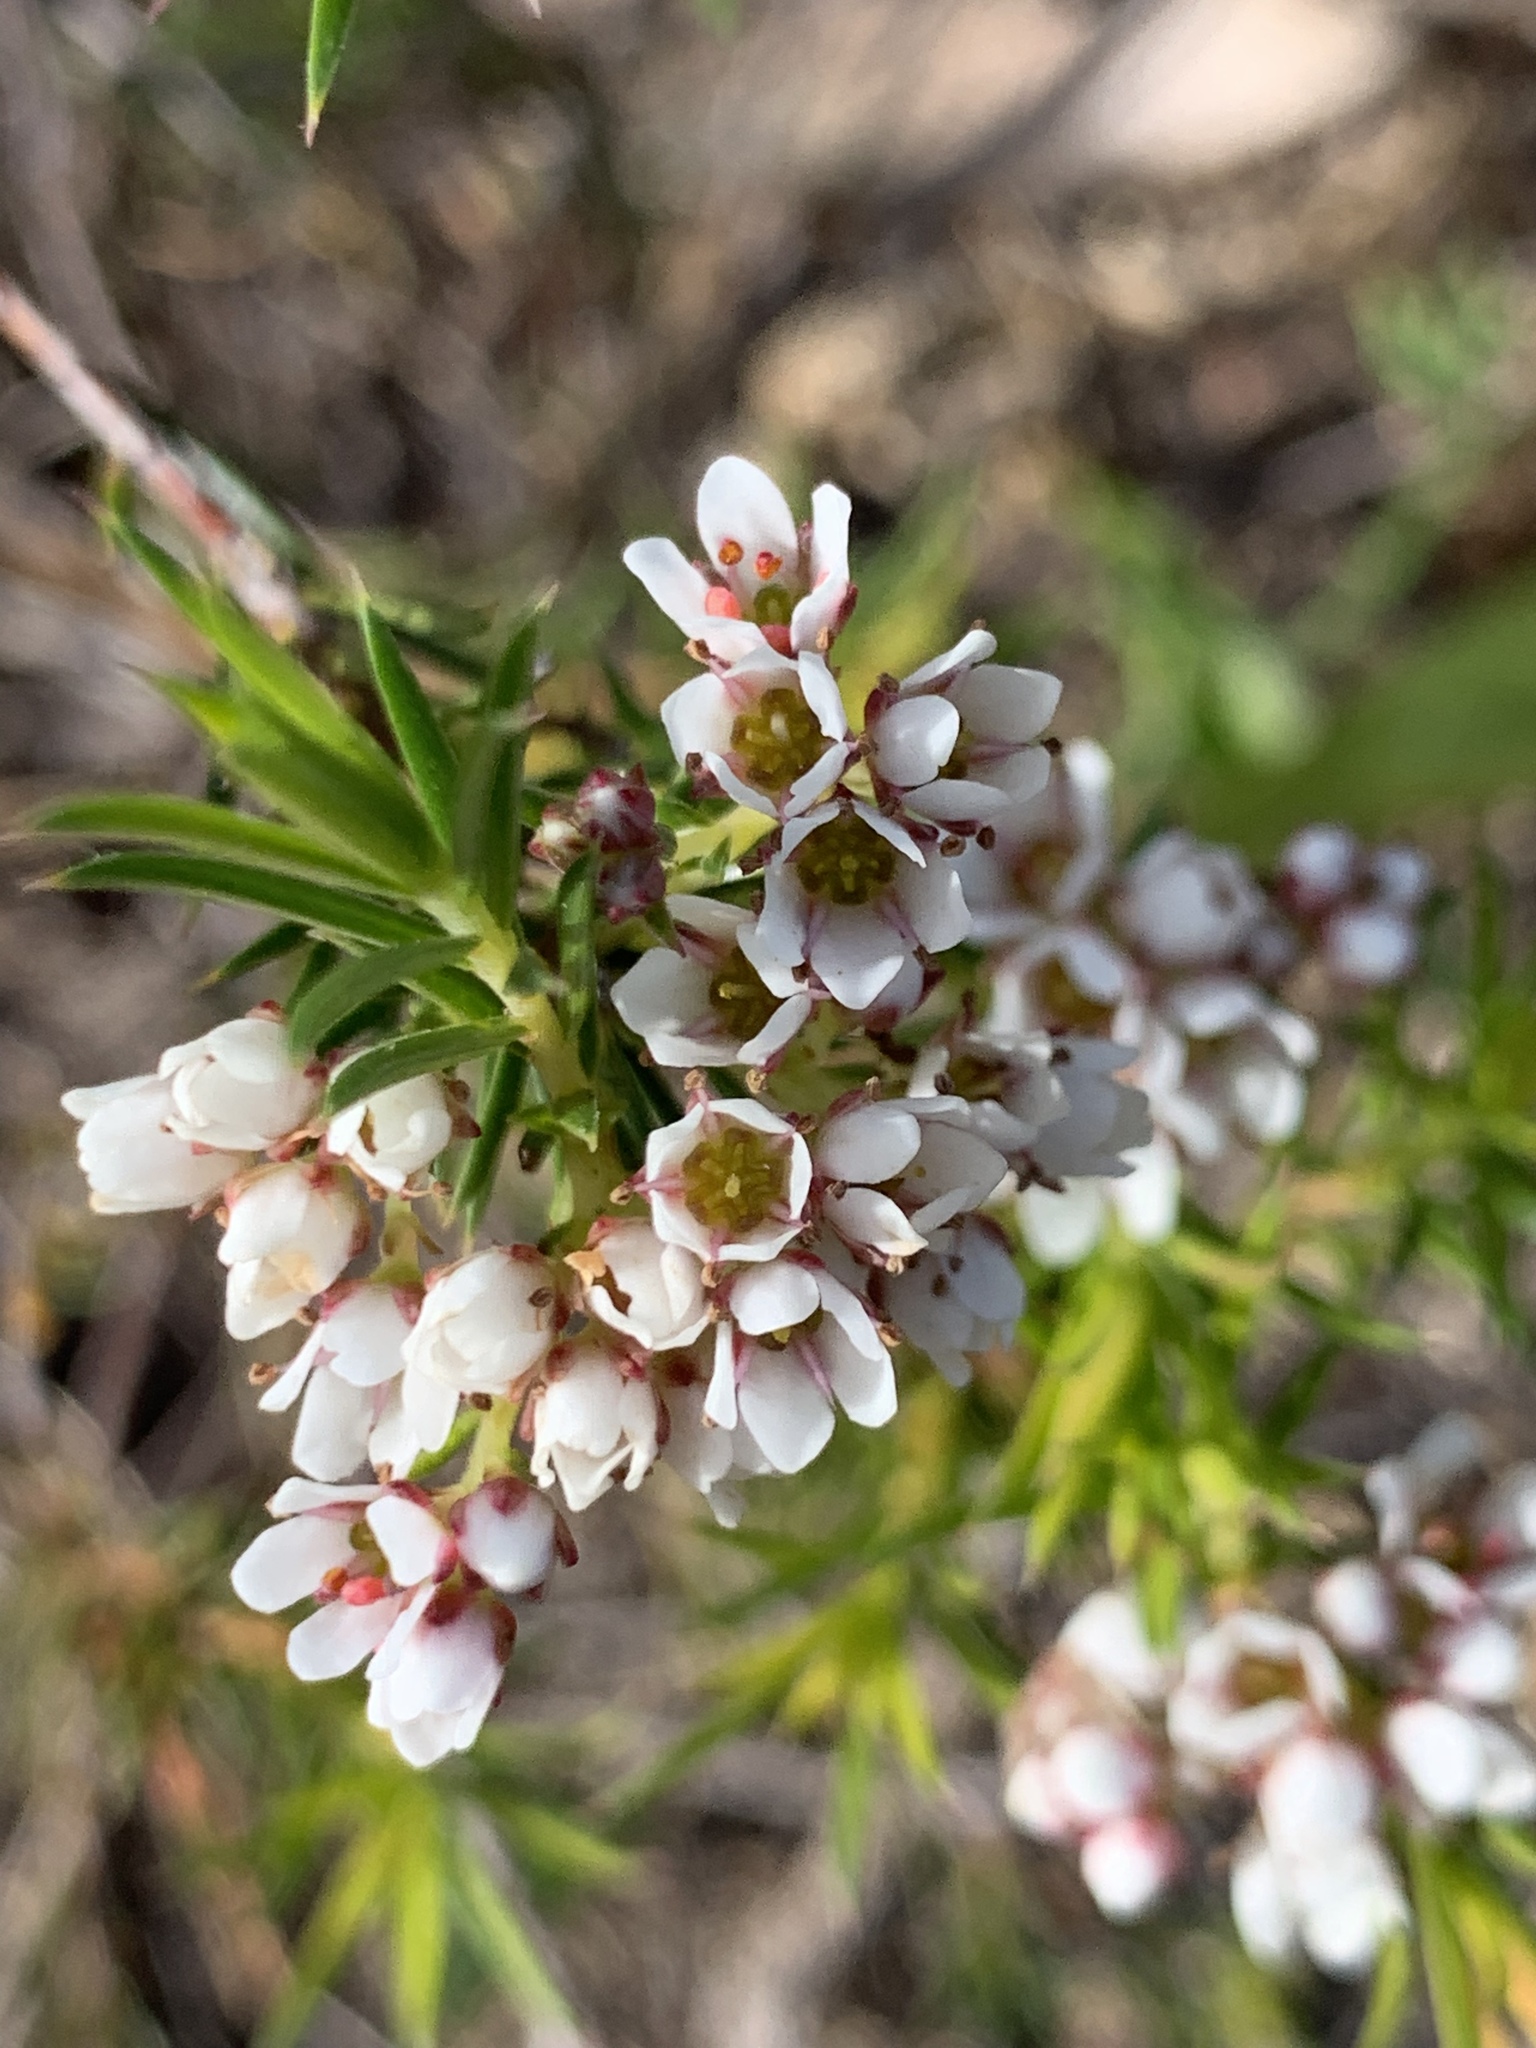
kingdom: Plantae
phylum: Tracheophyta
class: Magnoliopsida
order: Sapindales
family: Rutaceae
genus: Diosma
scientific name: Diosma hirsuta
